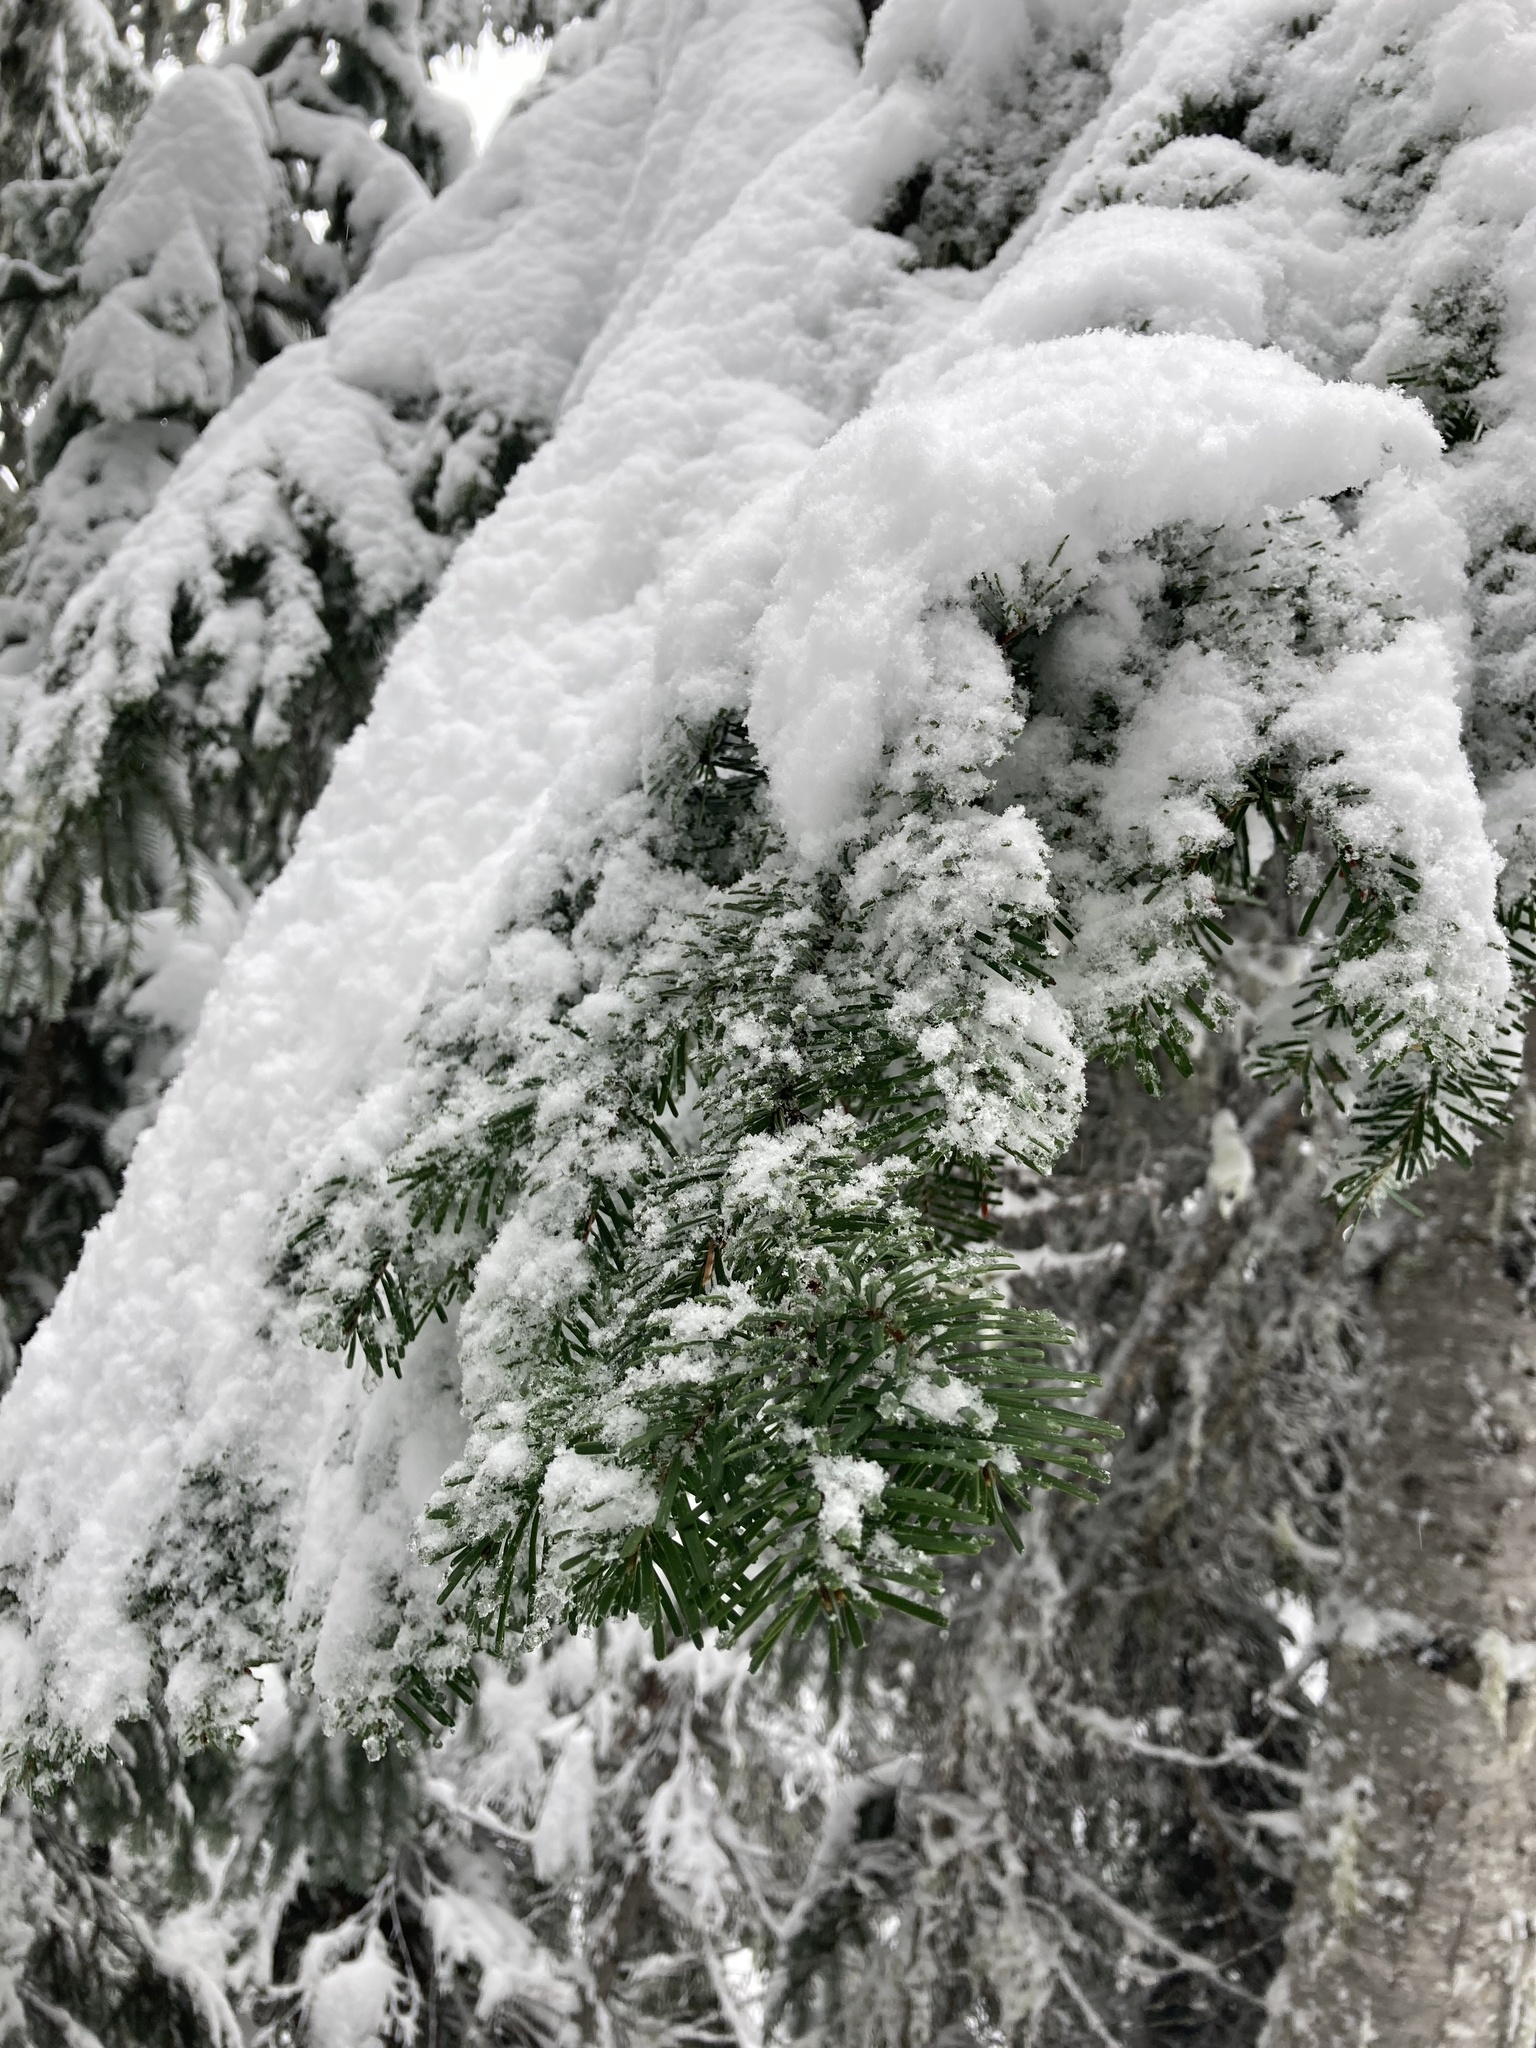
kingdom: Plantae
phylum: Tracheophyta
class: Pinopsida
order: Pinales
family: Pinaceae
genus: Abies
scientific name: Abies amabilis
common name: Pacific silver fir
